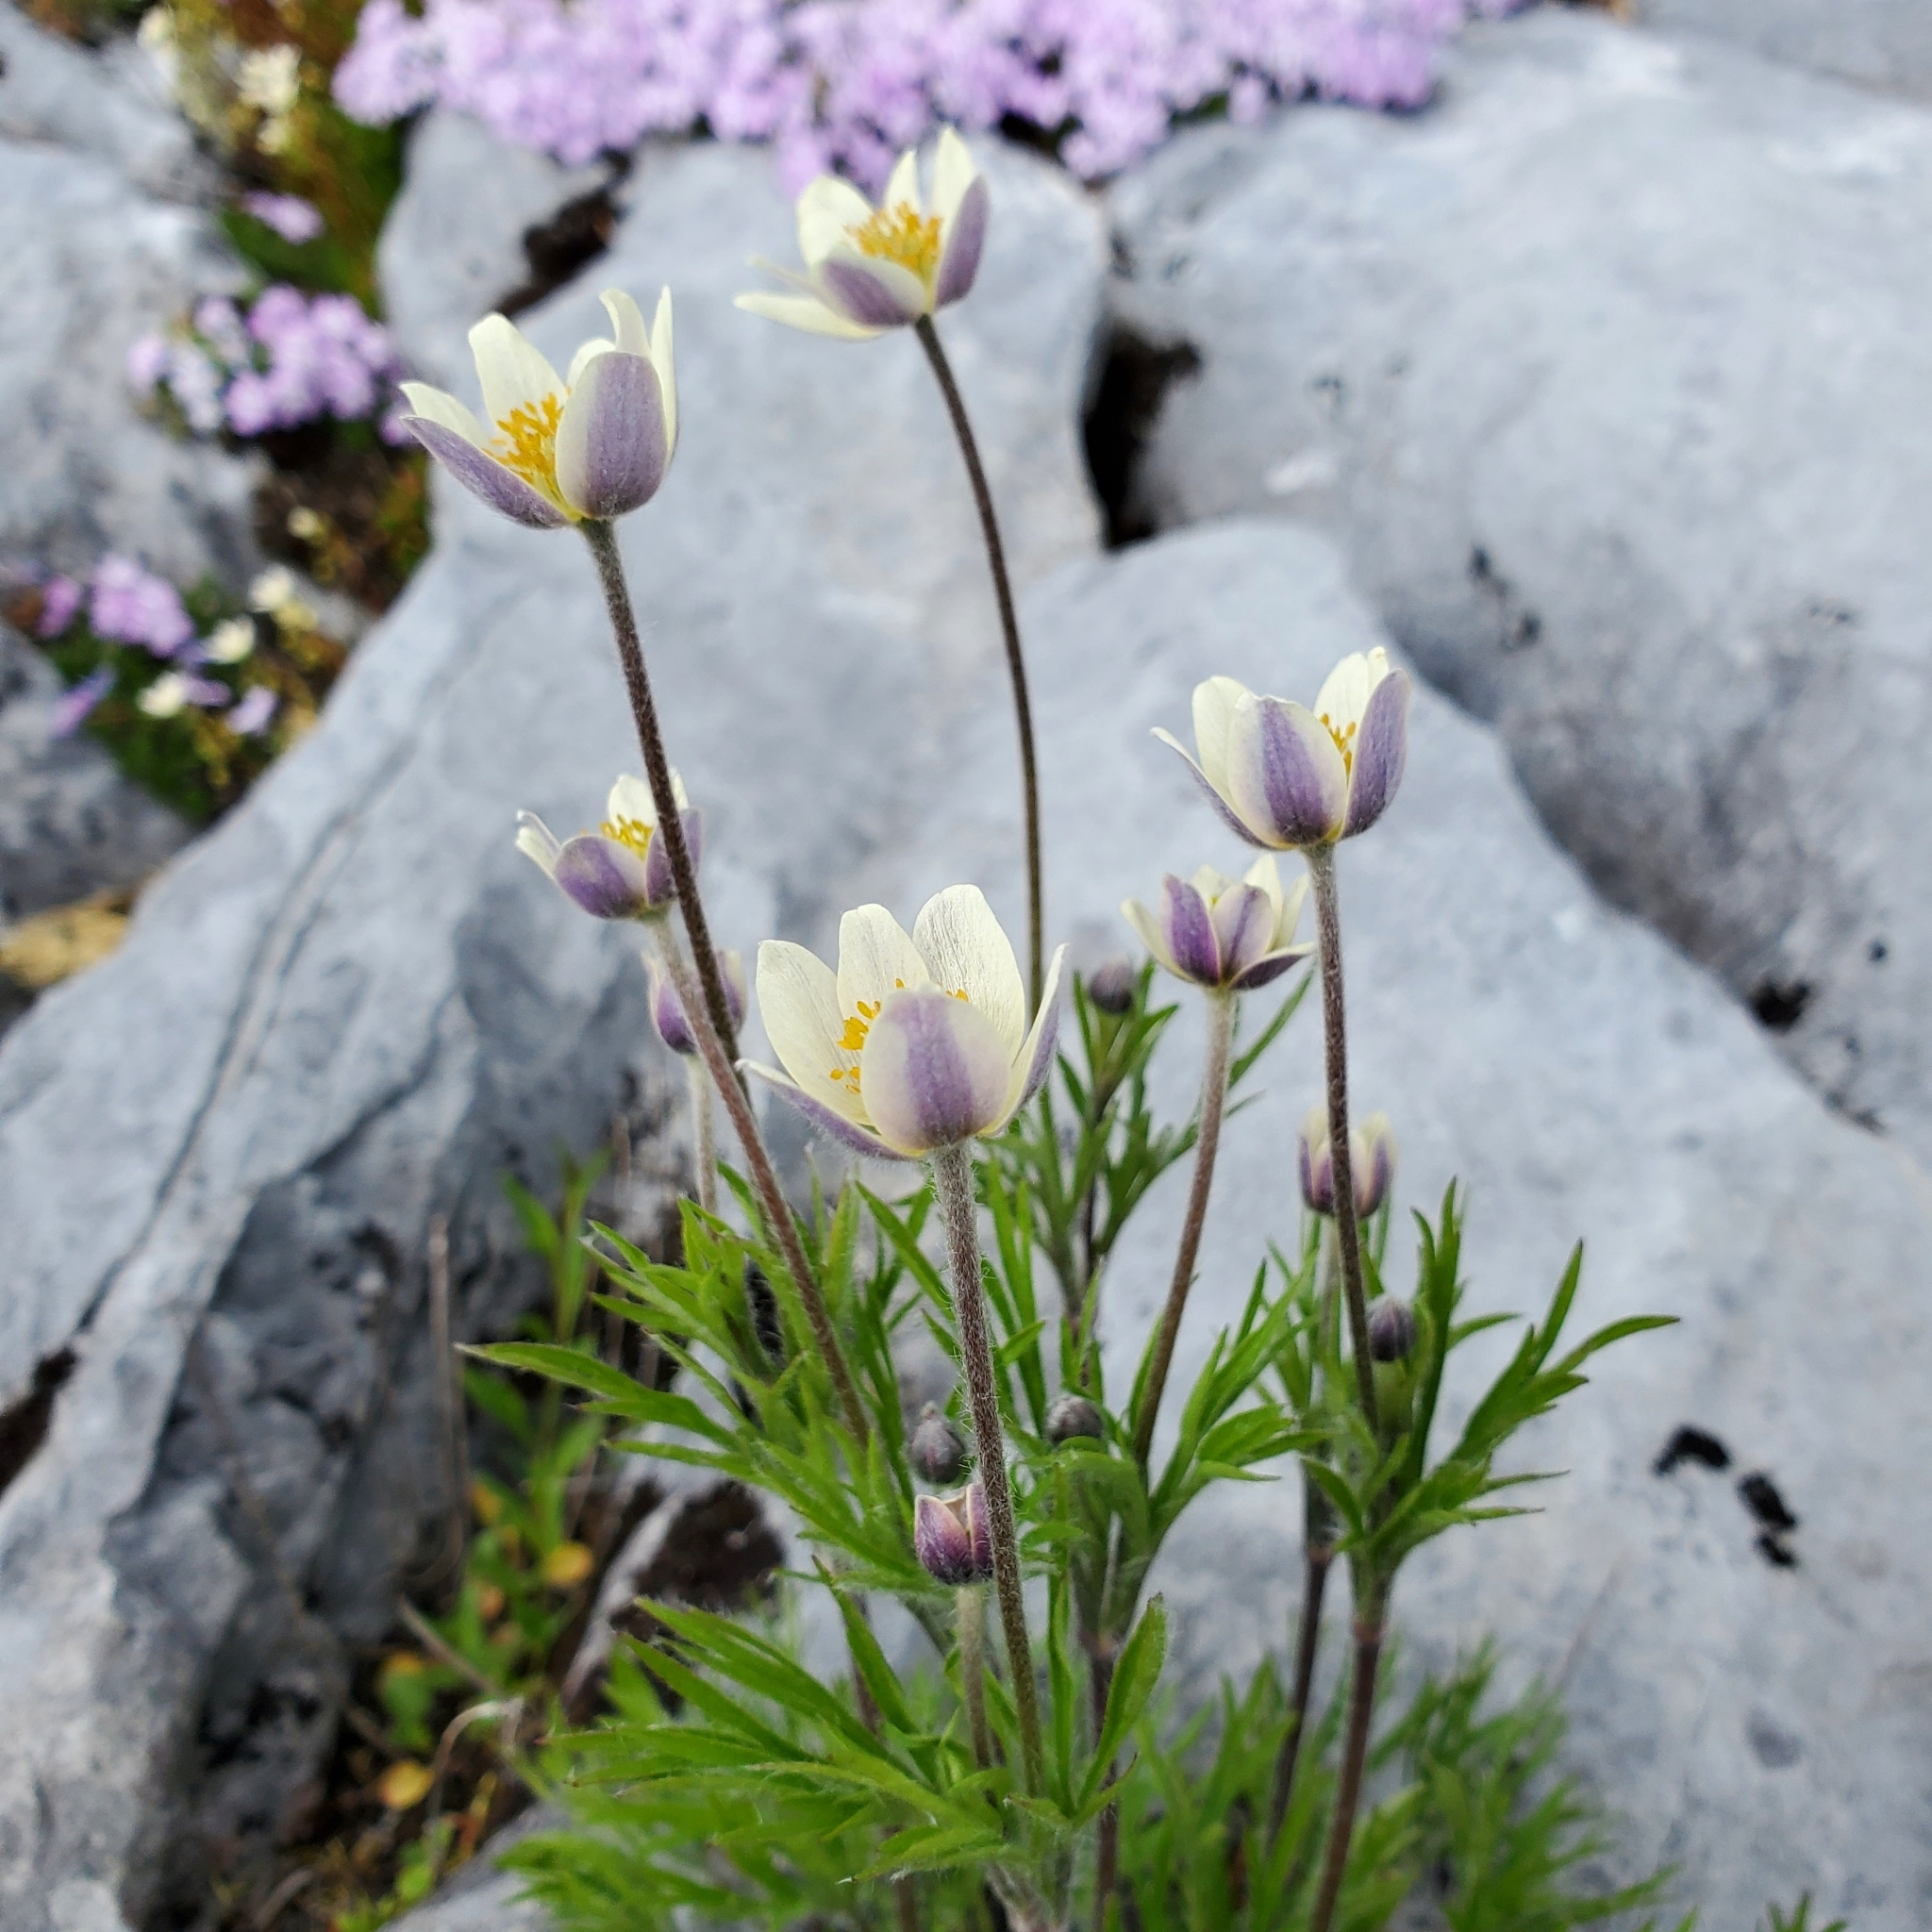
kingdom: Plantae
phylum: Tracheophyta
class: Magnoliopsida
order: Ranunculales
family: Ranunculaceae
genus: Anemone
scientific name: Anemone multifida
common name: Bird's-foot anemone
